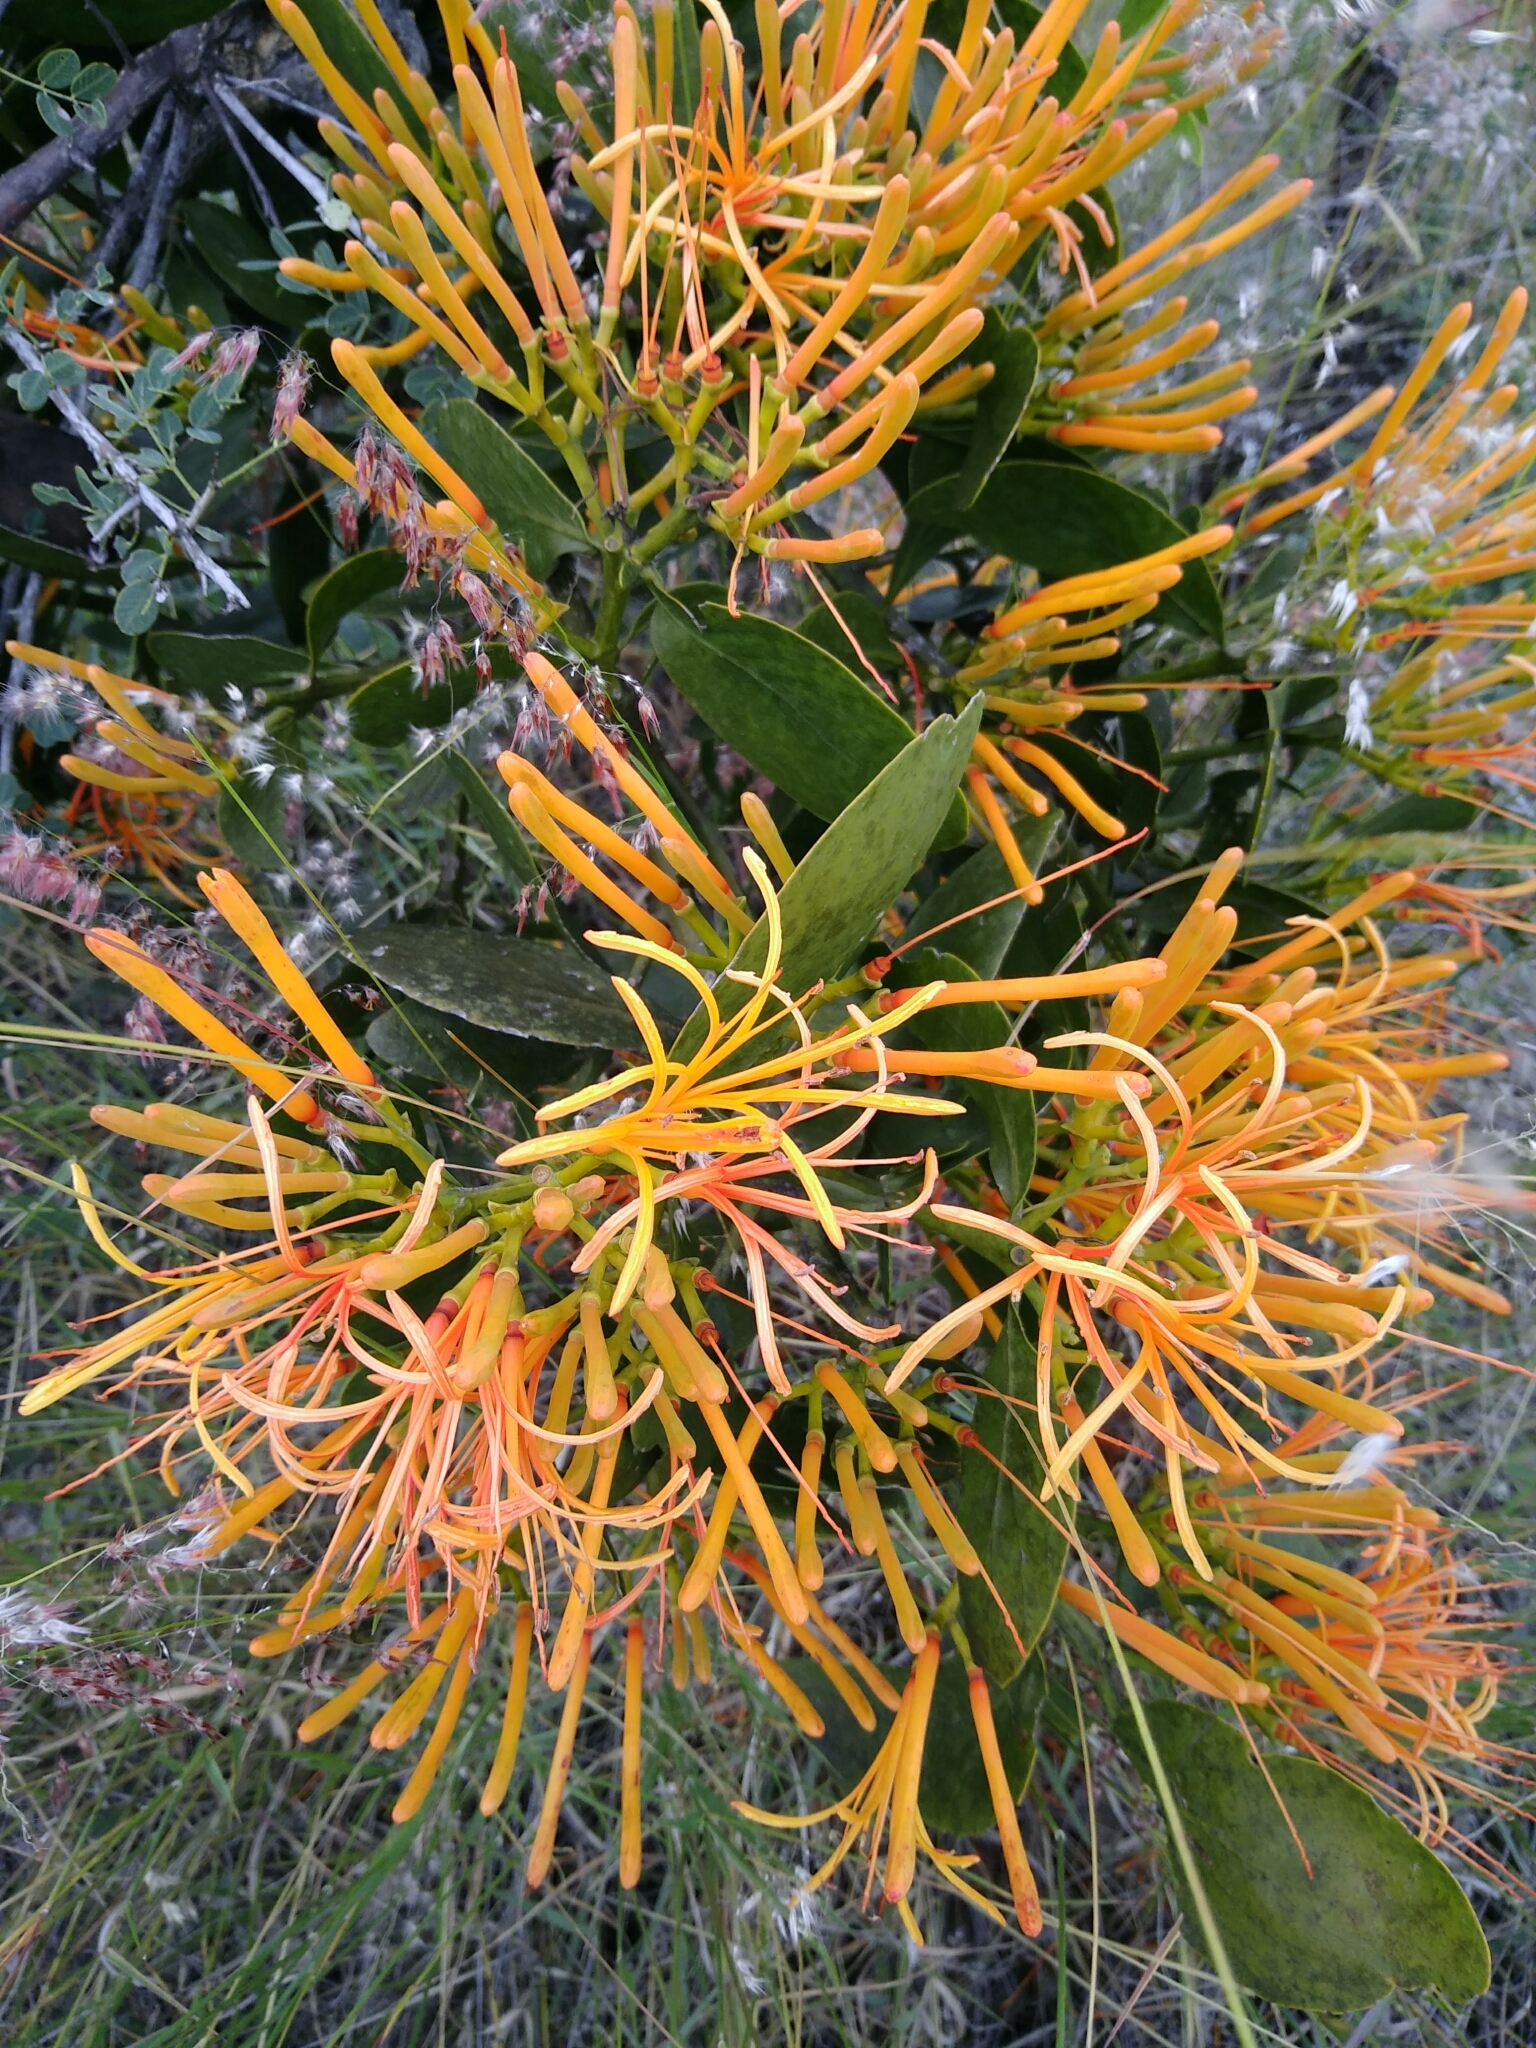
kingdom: Plantae
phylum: Tracheophyta
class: Magnoliopsida
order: Santalales
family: Loranthaceae
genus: Psittacanthus
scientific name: Psittacanthus schiedeanus
